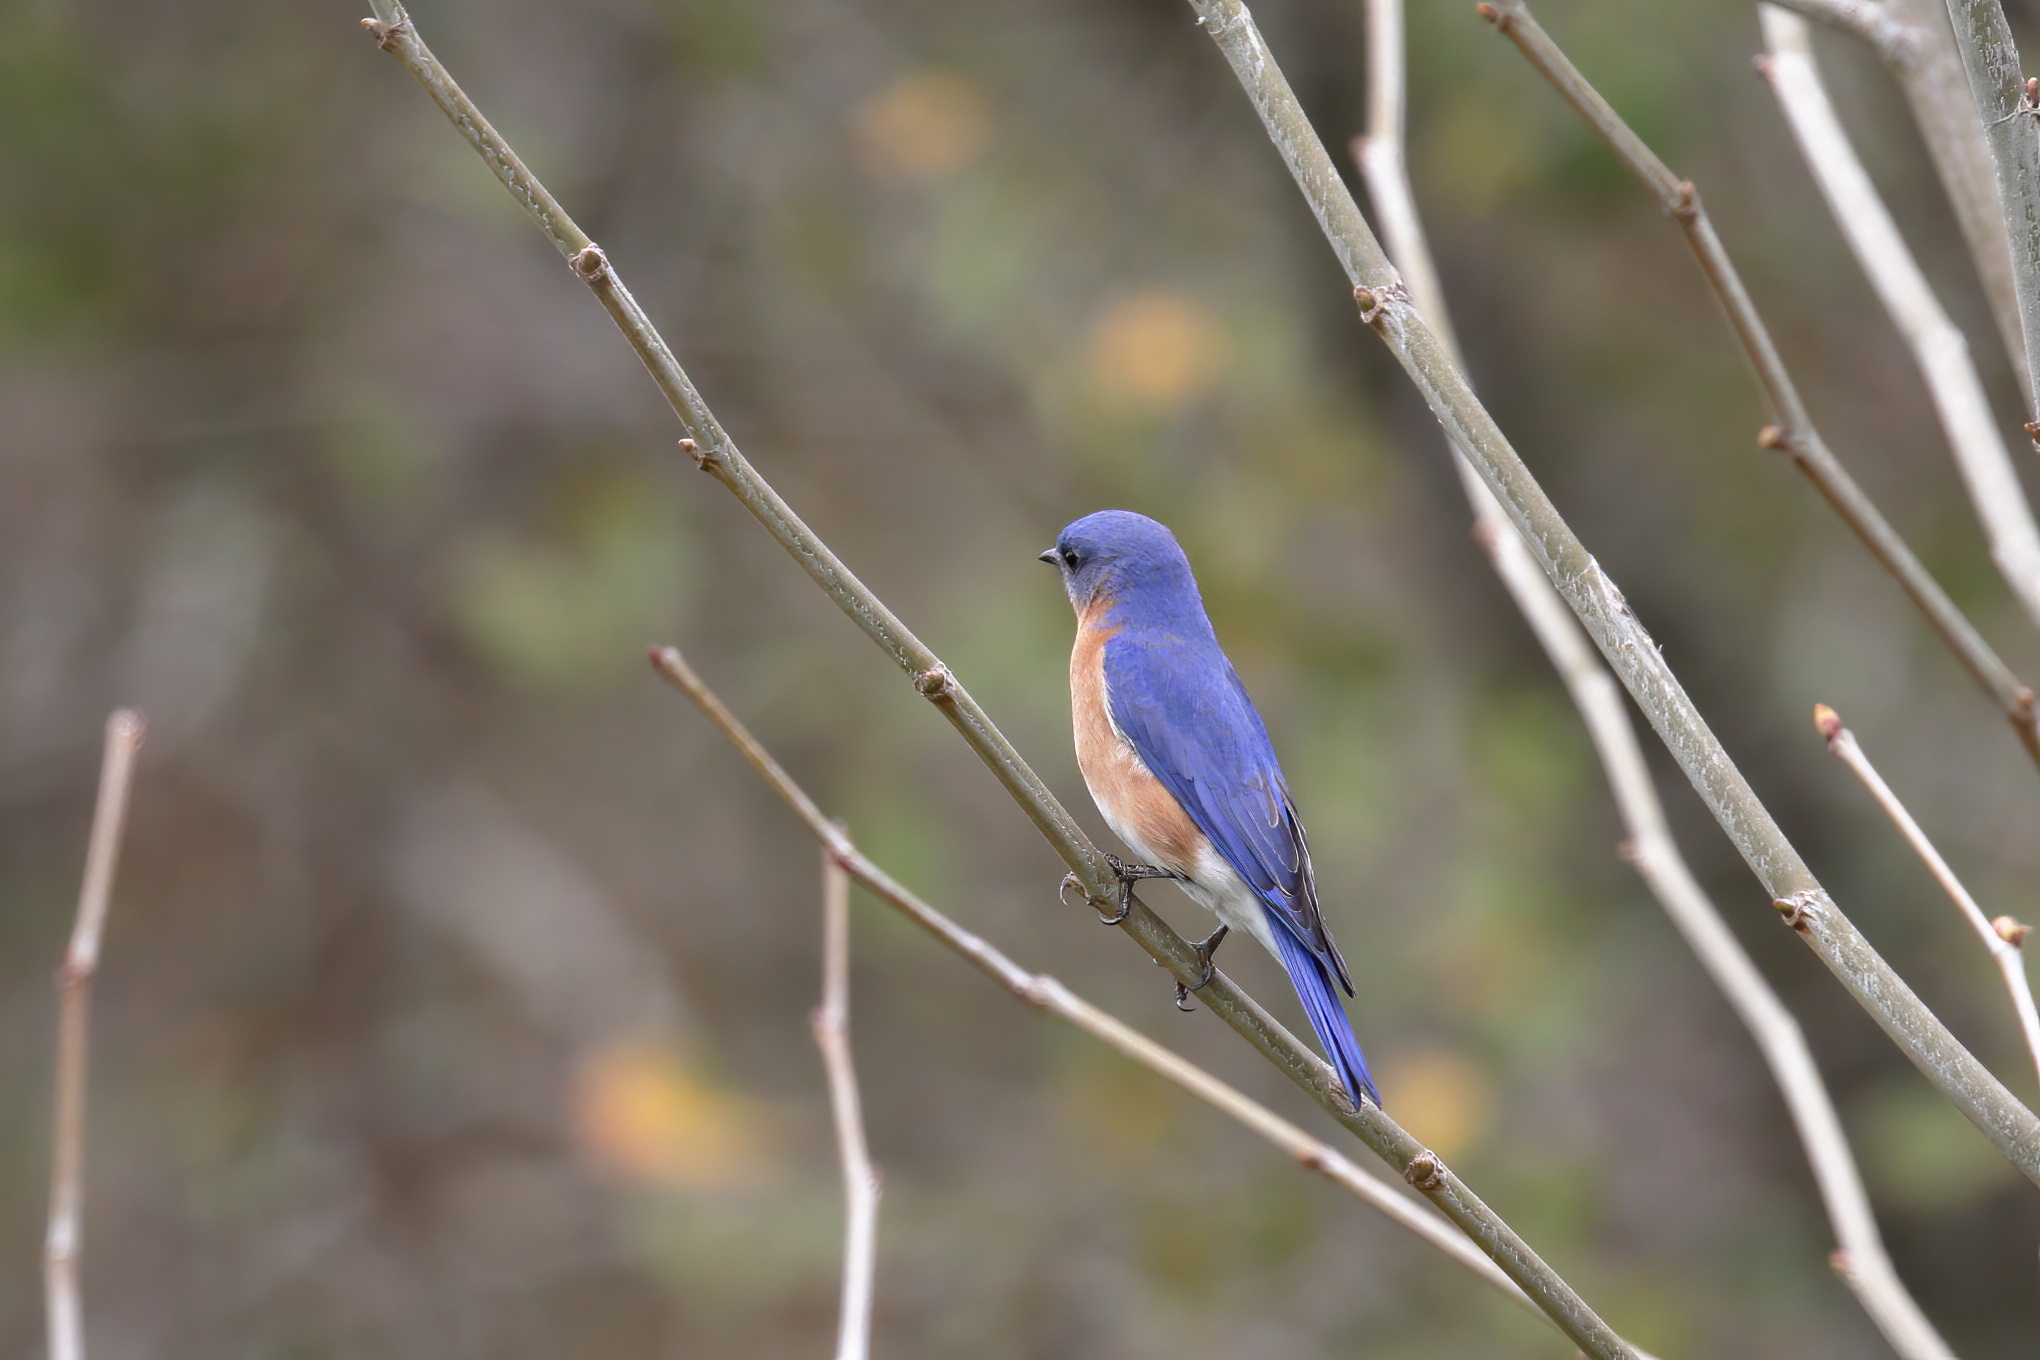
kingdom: Animalia
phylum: Chordata
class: Aves
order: Passeriformes
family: Turdidae
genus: Sialia
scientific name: Sialia sialis
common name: Eastern bluebird
